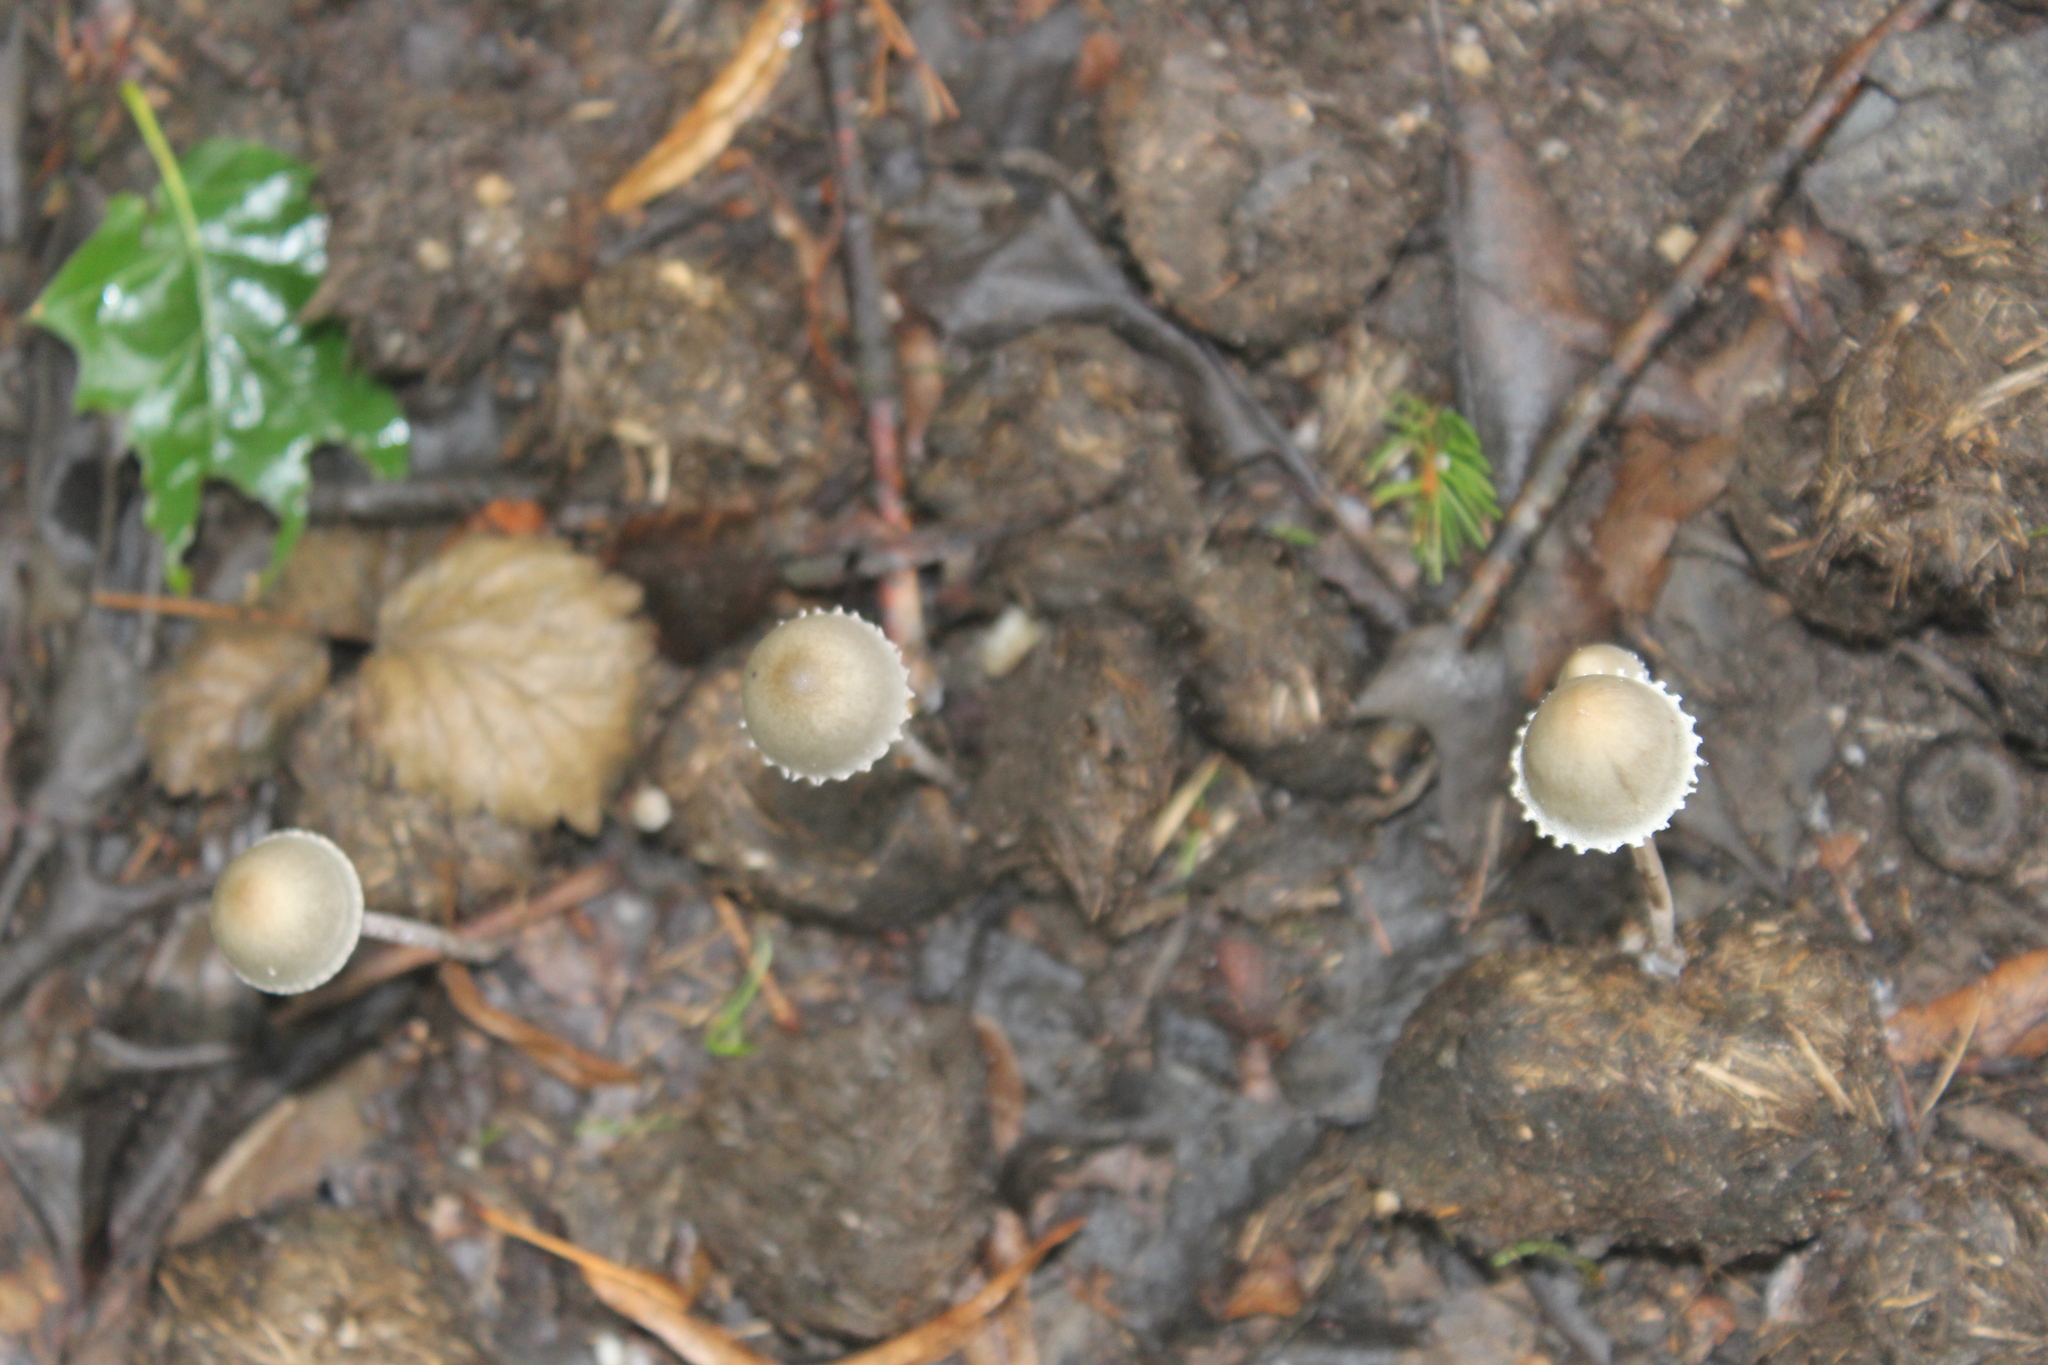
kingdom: Fungi
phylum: Basidiomycota
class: Agaricomycetes
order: Agaricales
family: Bolbitiaceae
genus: Panaeolus
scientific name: Panaeolus papilionaceus
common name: Petticoat mottlegill
